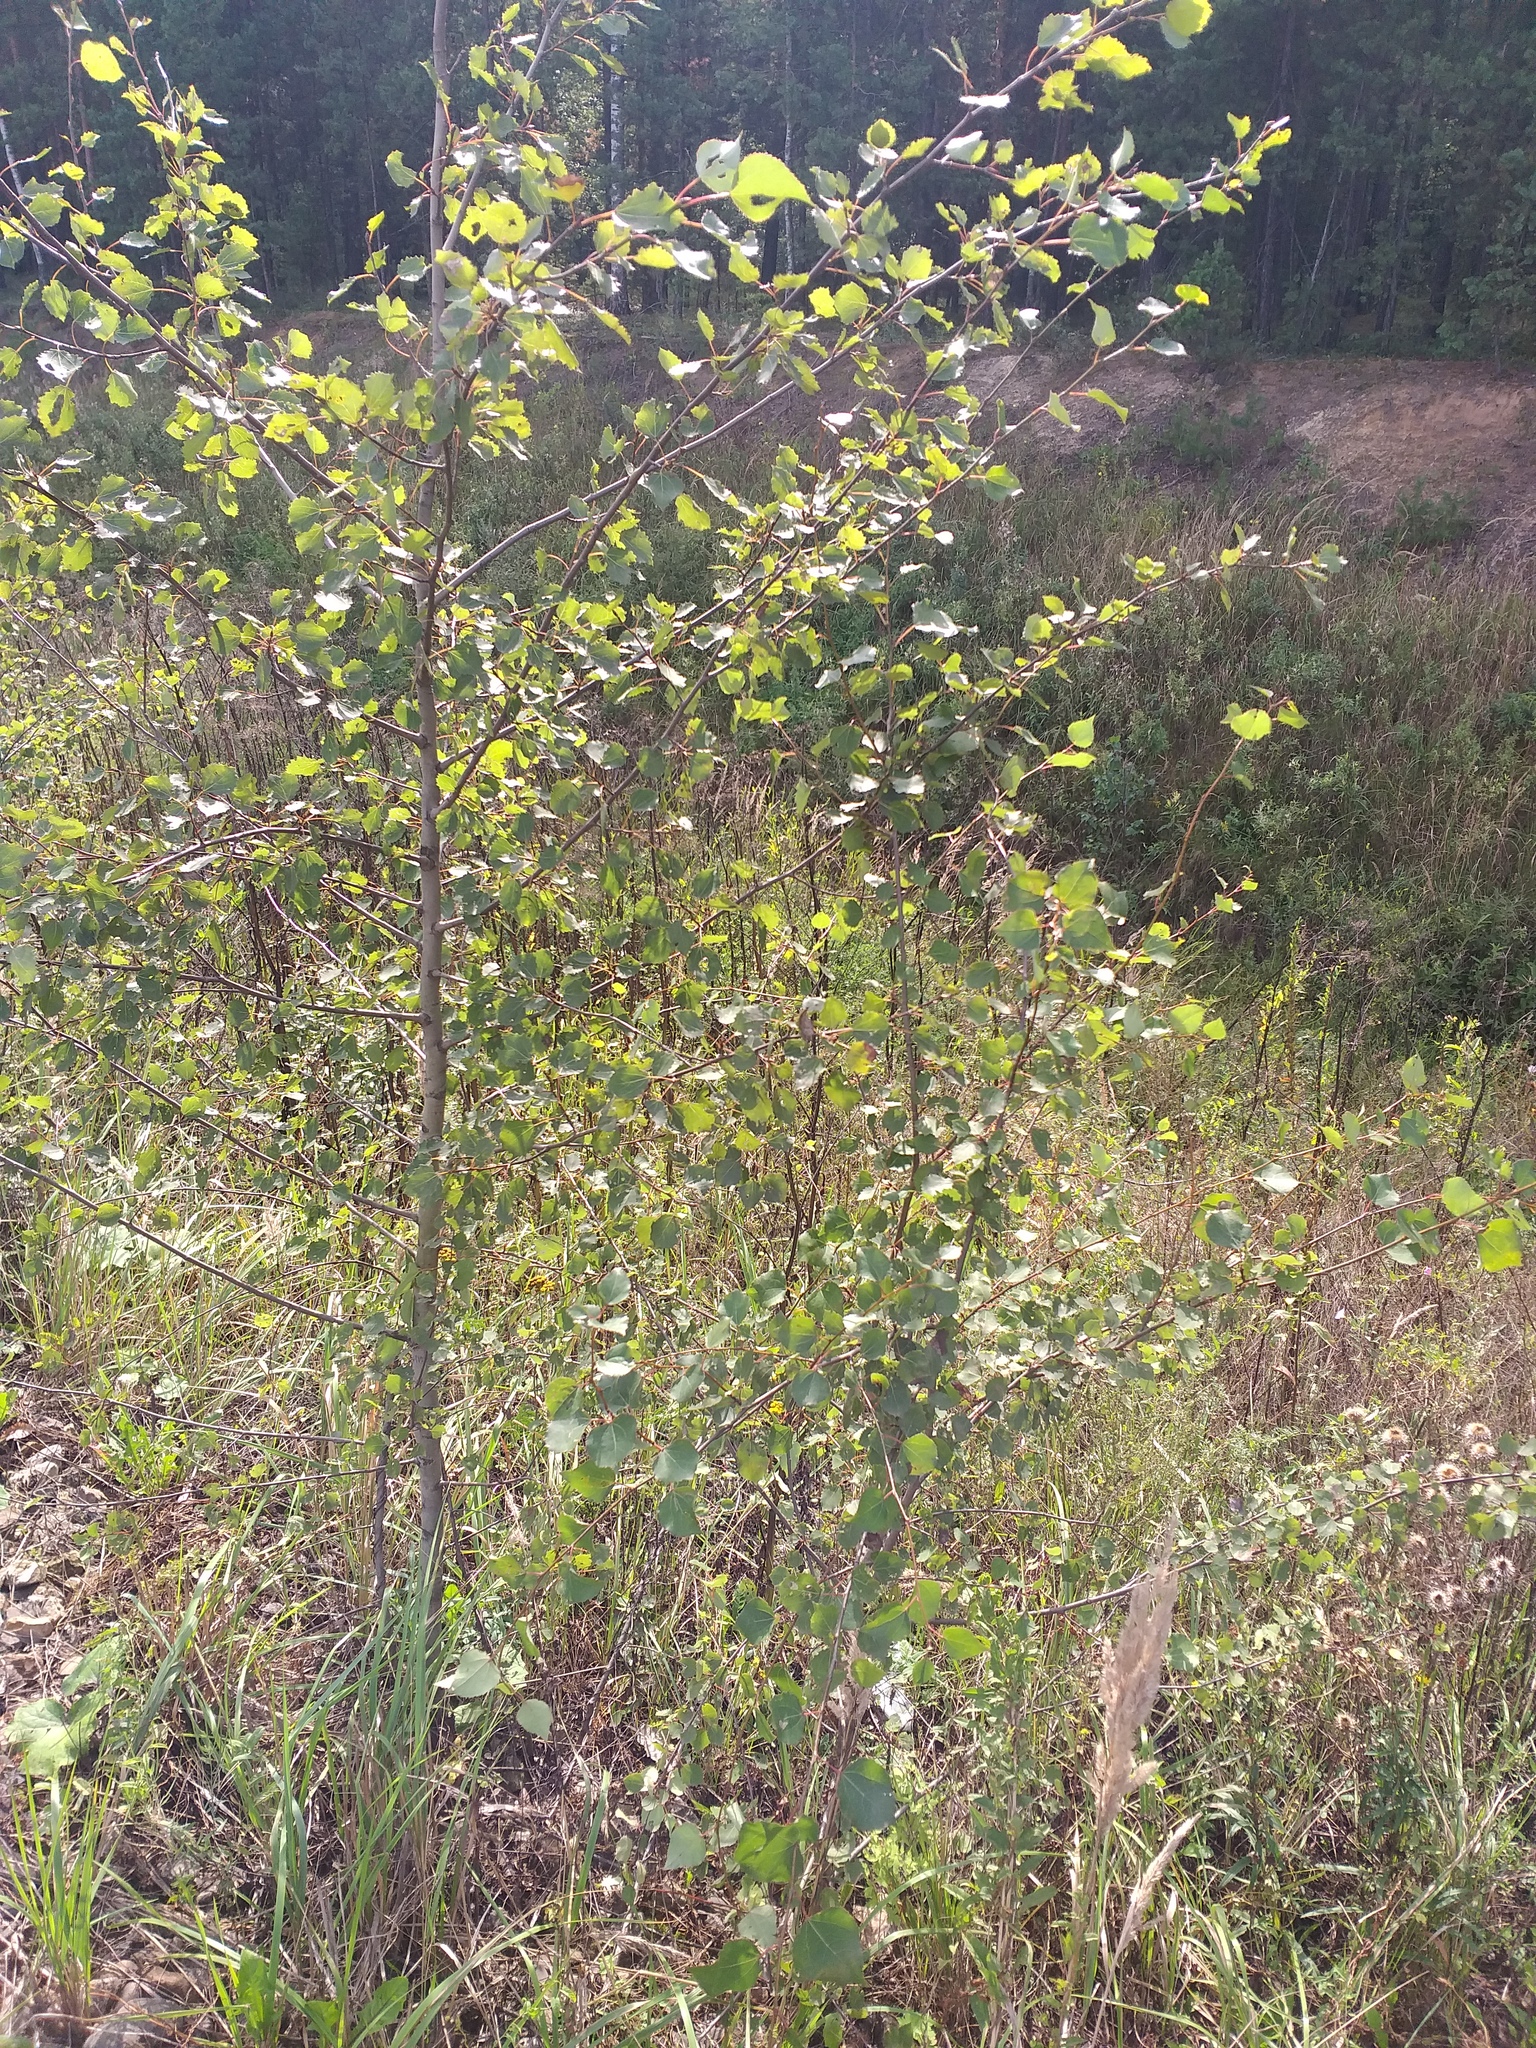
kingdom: Plantae
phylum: Tracheophyta
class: Magnoliopsida
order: Malpighiales
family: Salicaceae
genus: Populus
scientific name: Populus tremula
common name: European aspen
